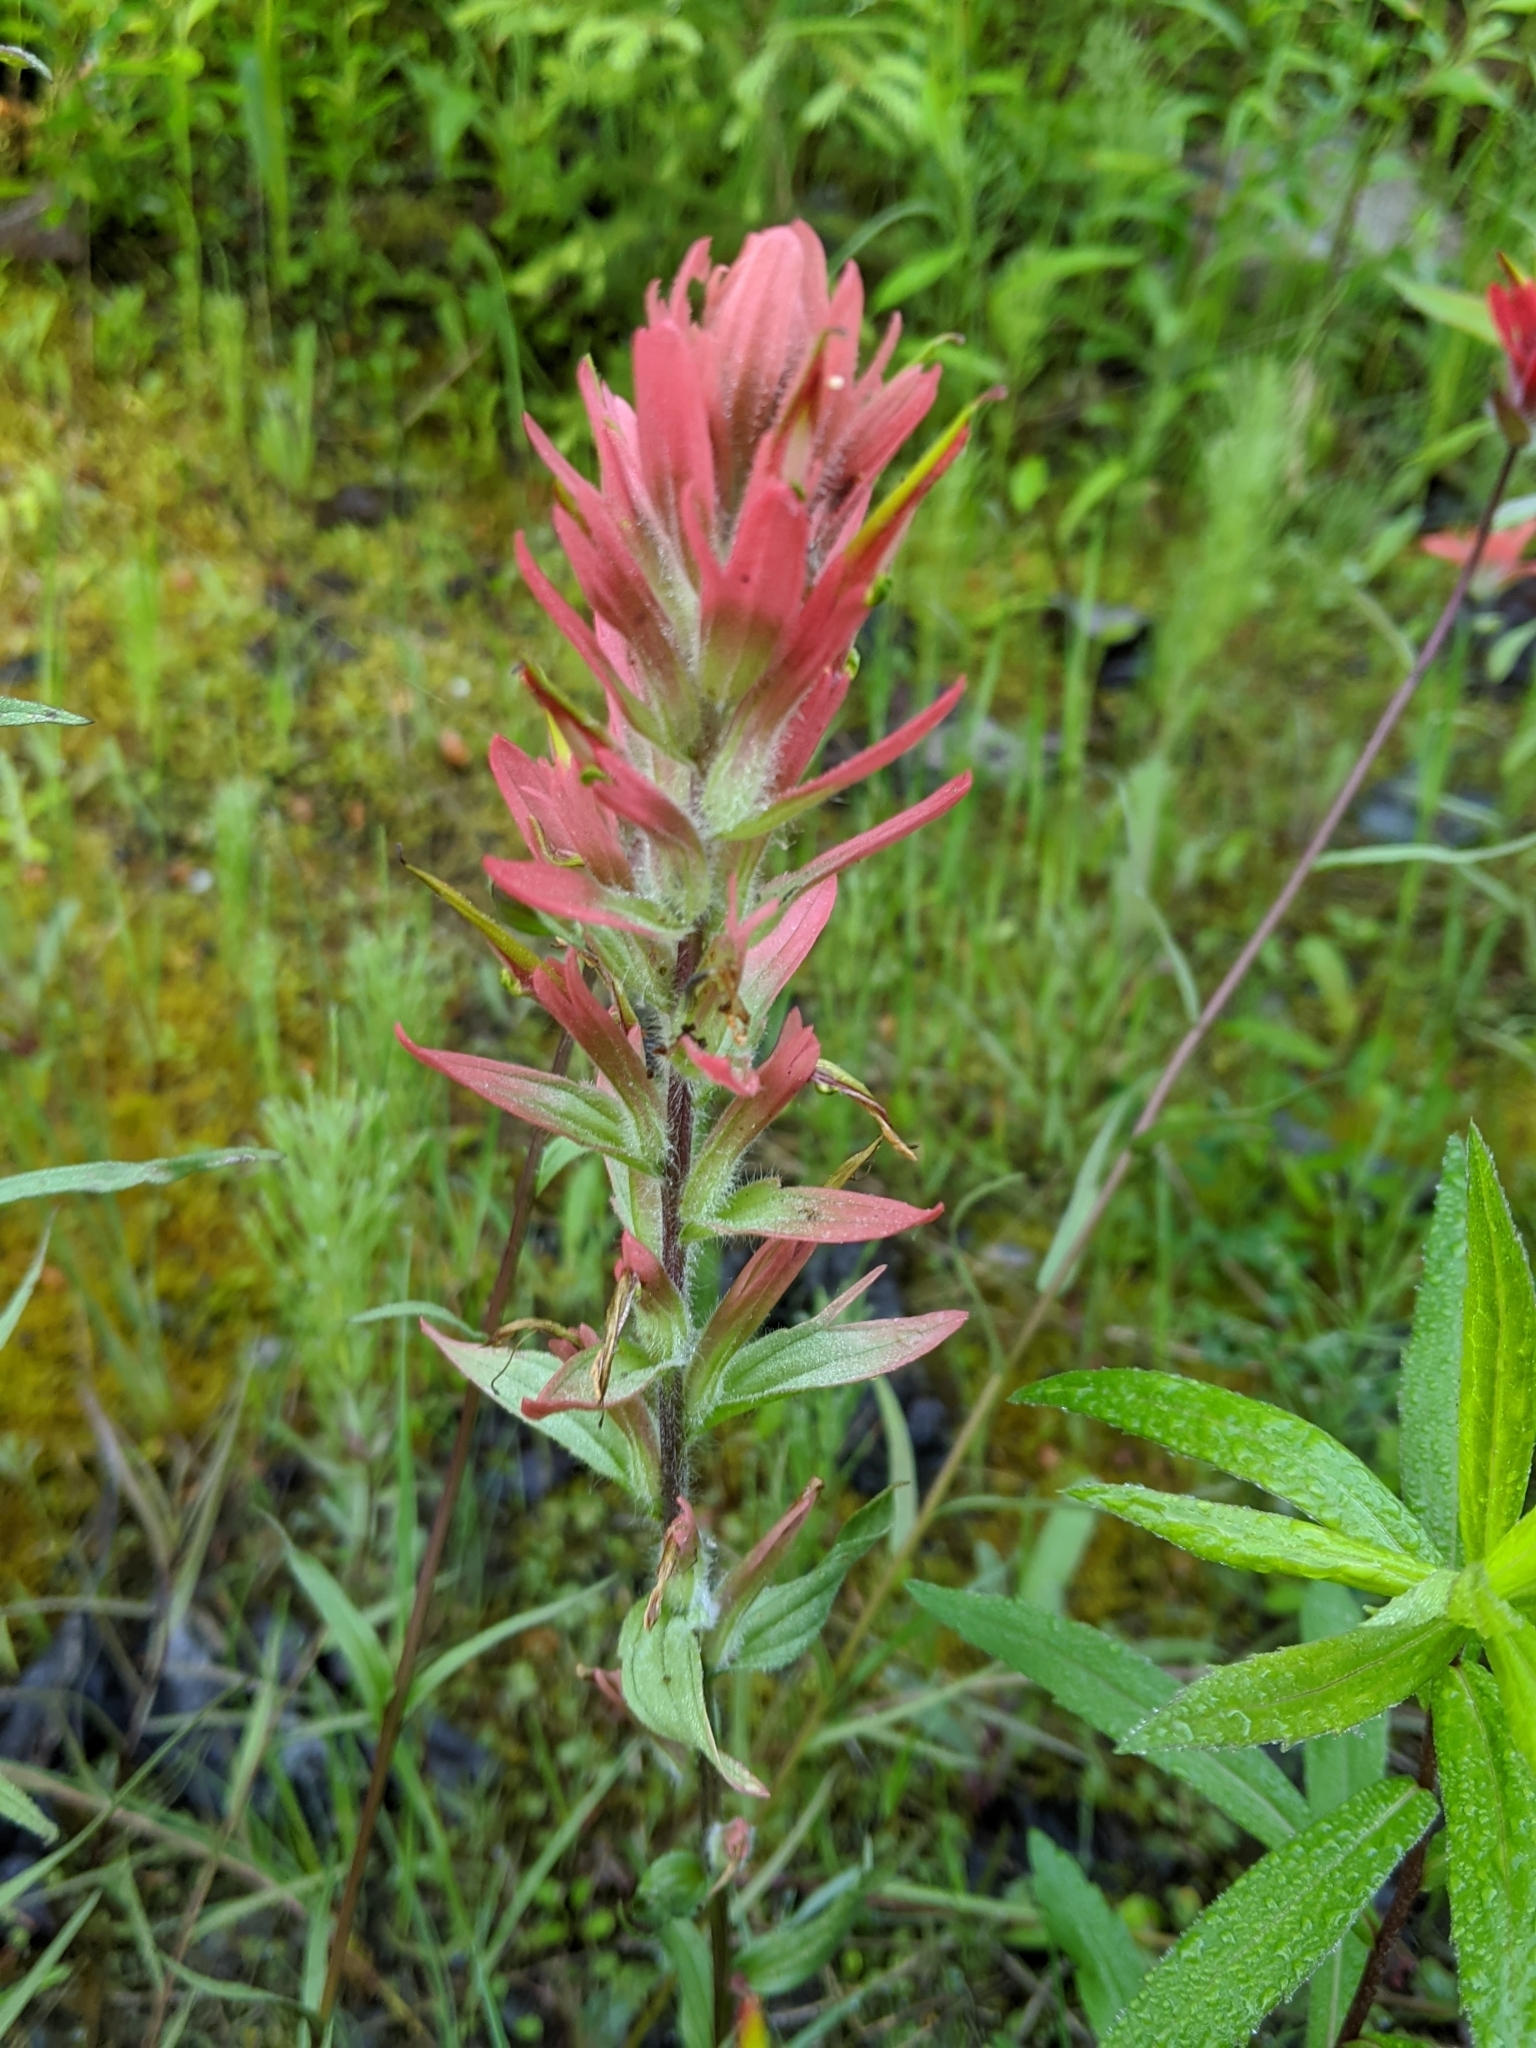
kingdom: Plantae
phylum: Tracheophyta
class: Magnoliopsida
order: Lamiales
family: Orobanchaceae
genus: Castilleja
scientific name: Castilleja miniata
